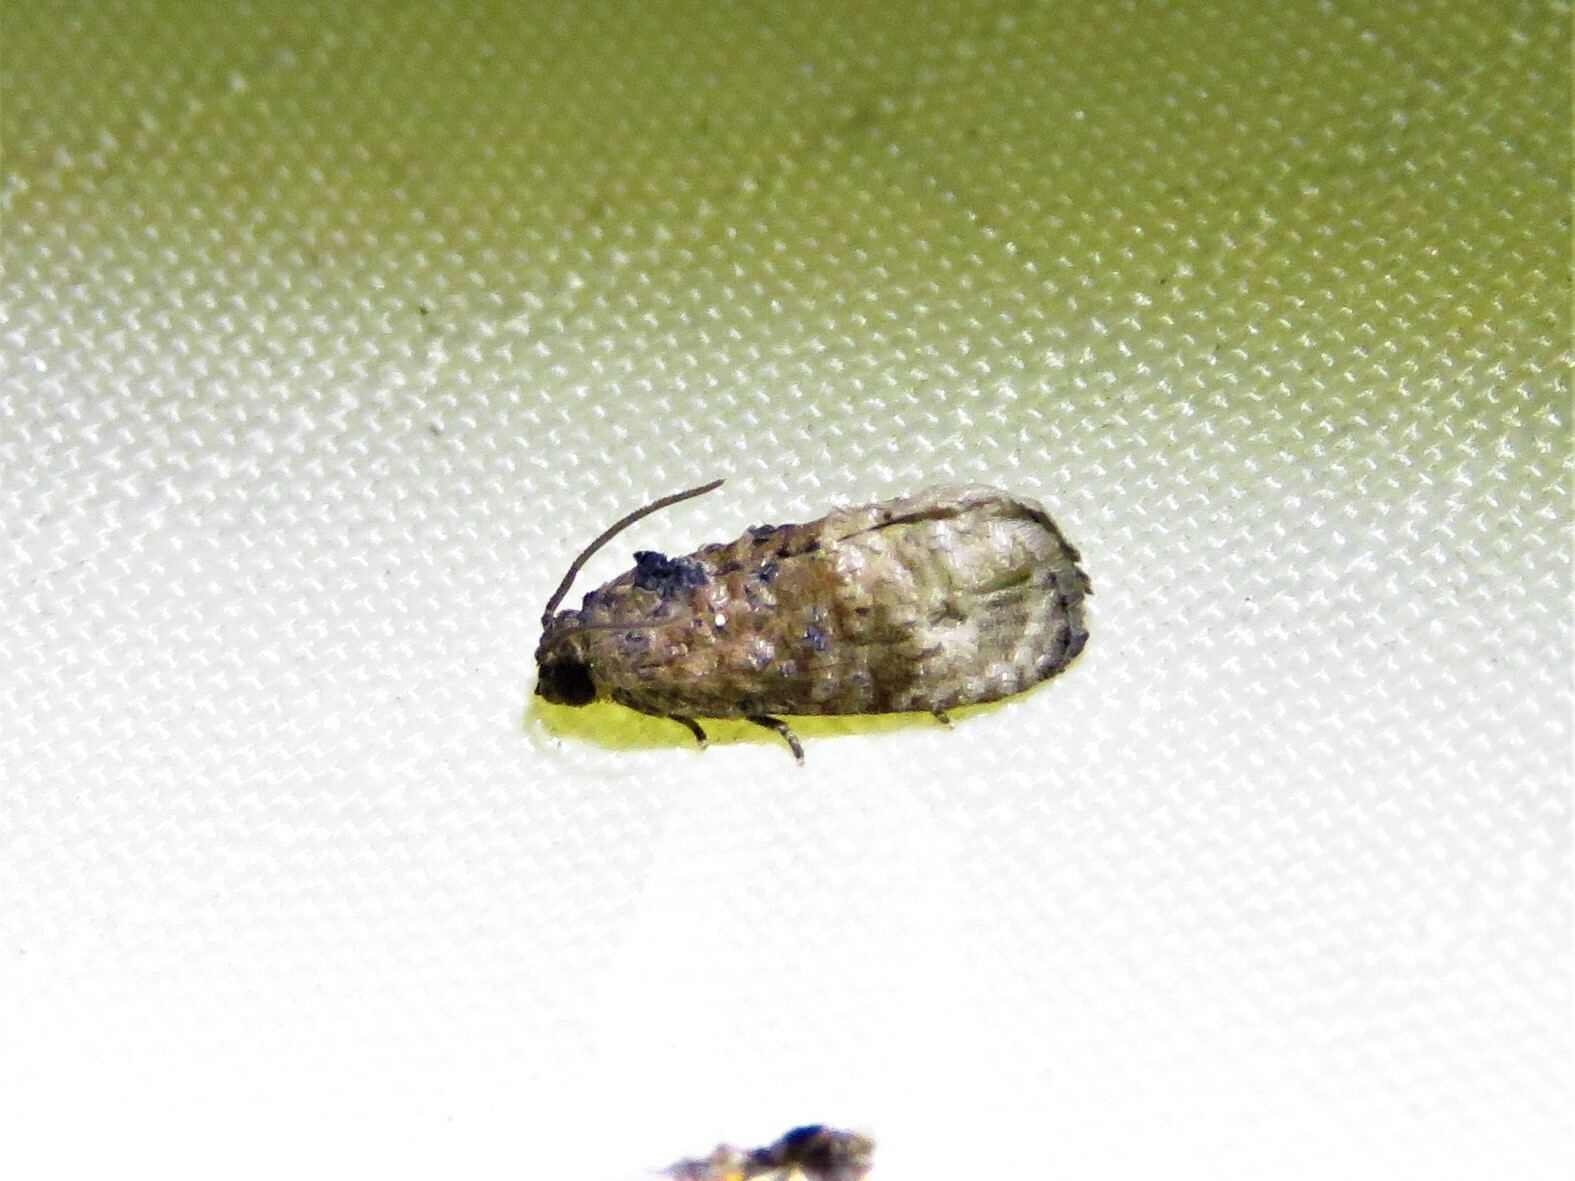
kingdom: Animalia
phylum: Arthropoda
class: Insecta
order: Lepidoptera
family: Tortricidae
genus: Ecdytolopha
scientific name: Ecdytolopha mana
